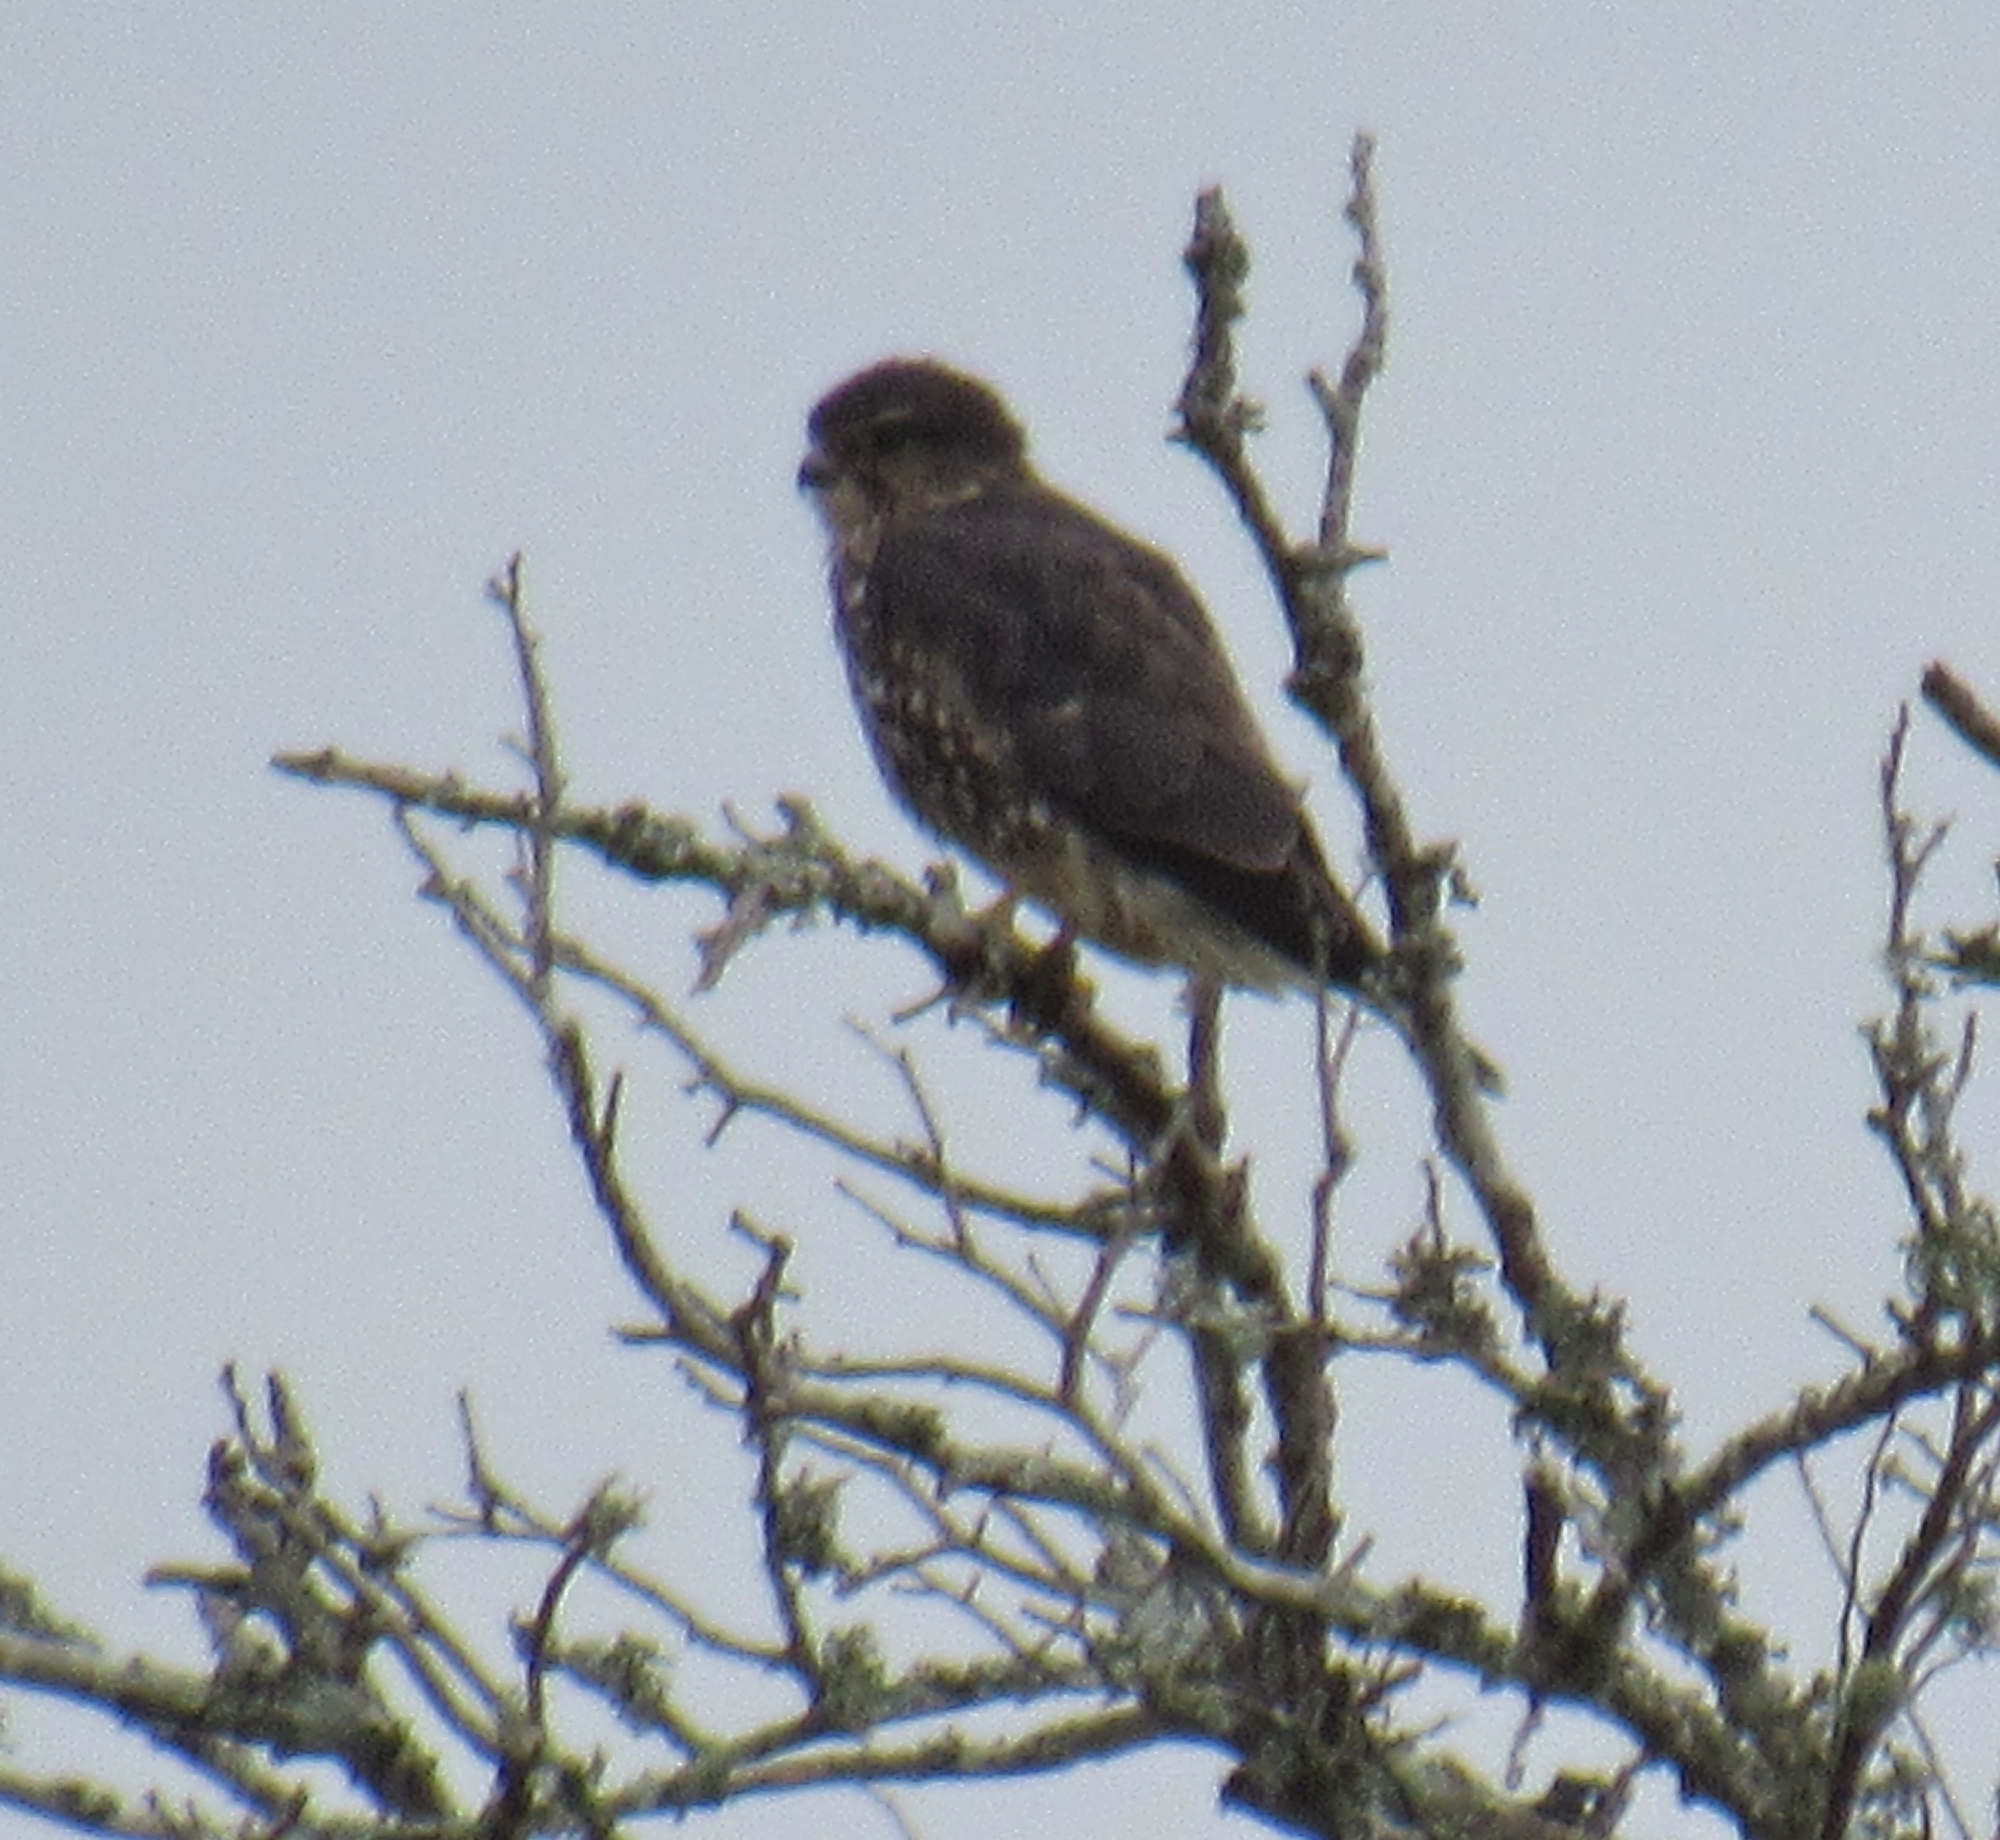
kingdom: Animalia
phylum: Chordata
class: Aves
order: Falconiformes
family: Falconidae
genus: Falco
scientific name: Falco columbarius
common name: Merlin
